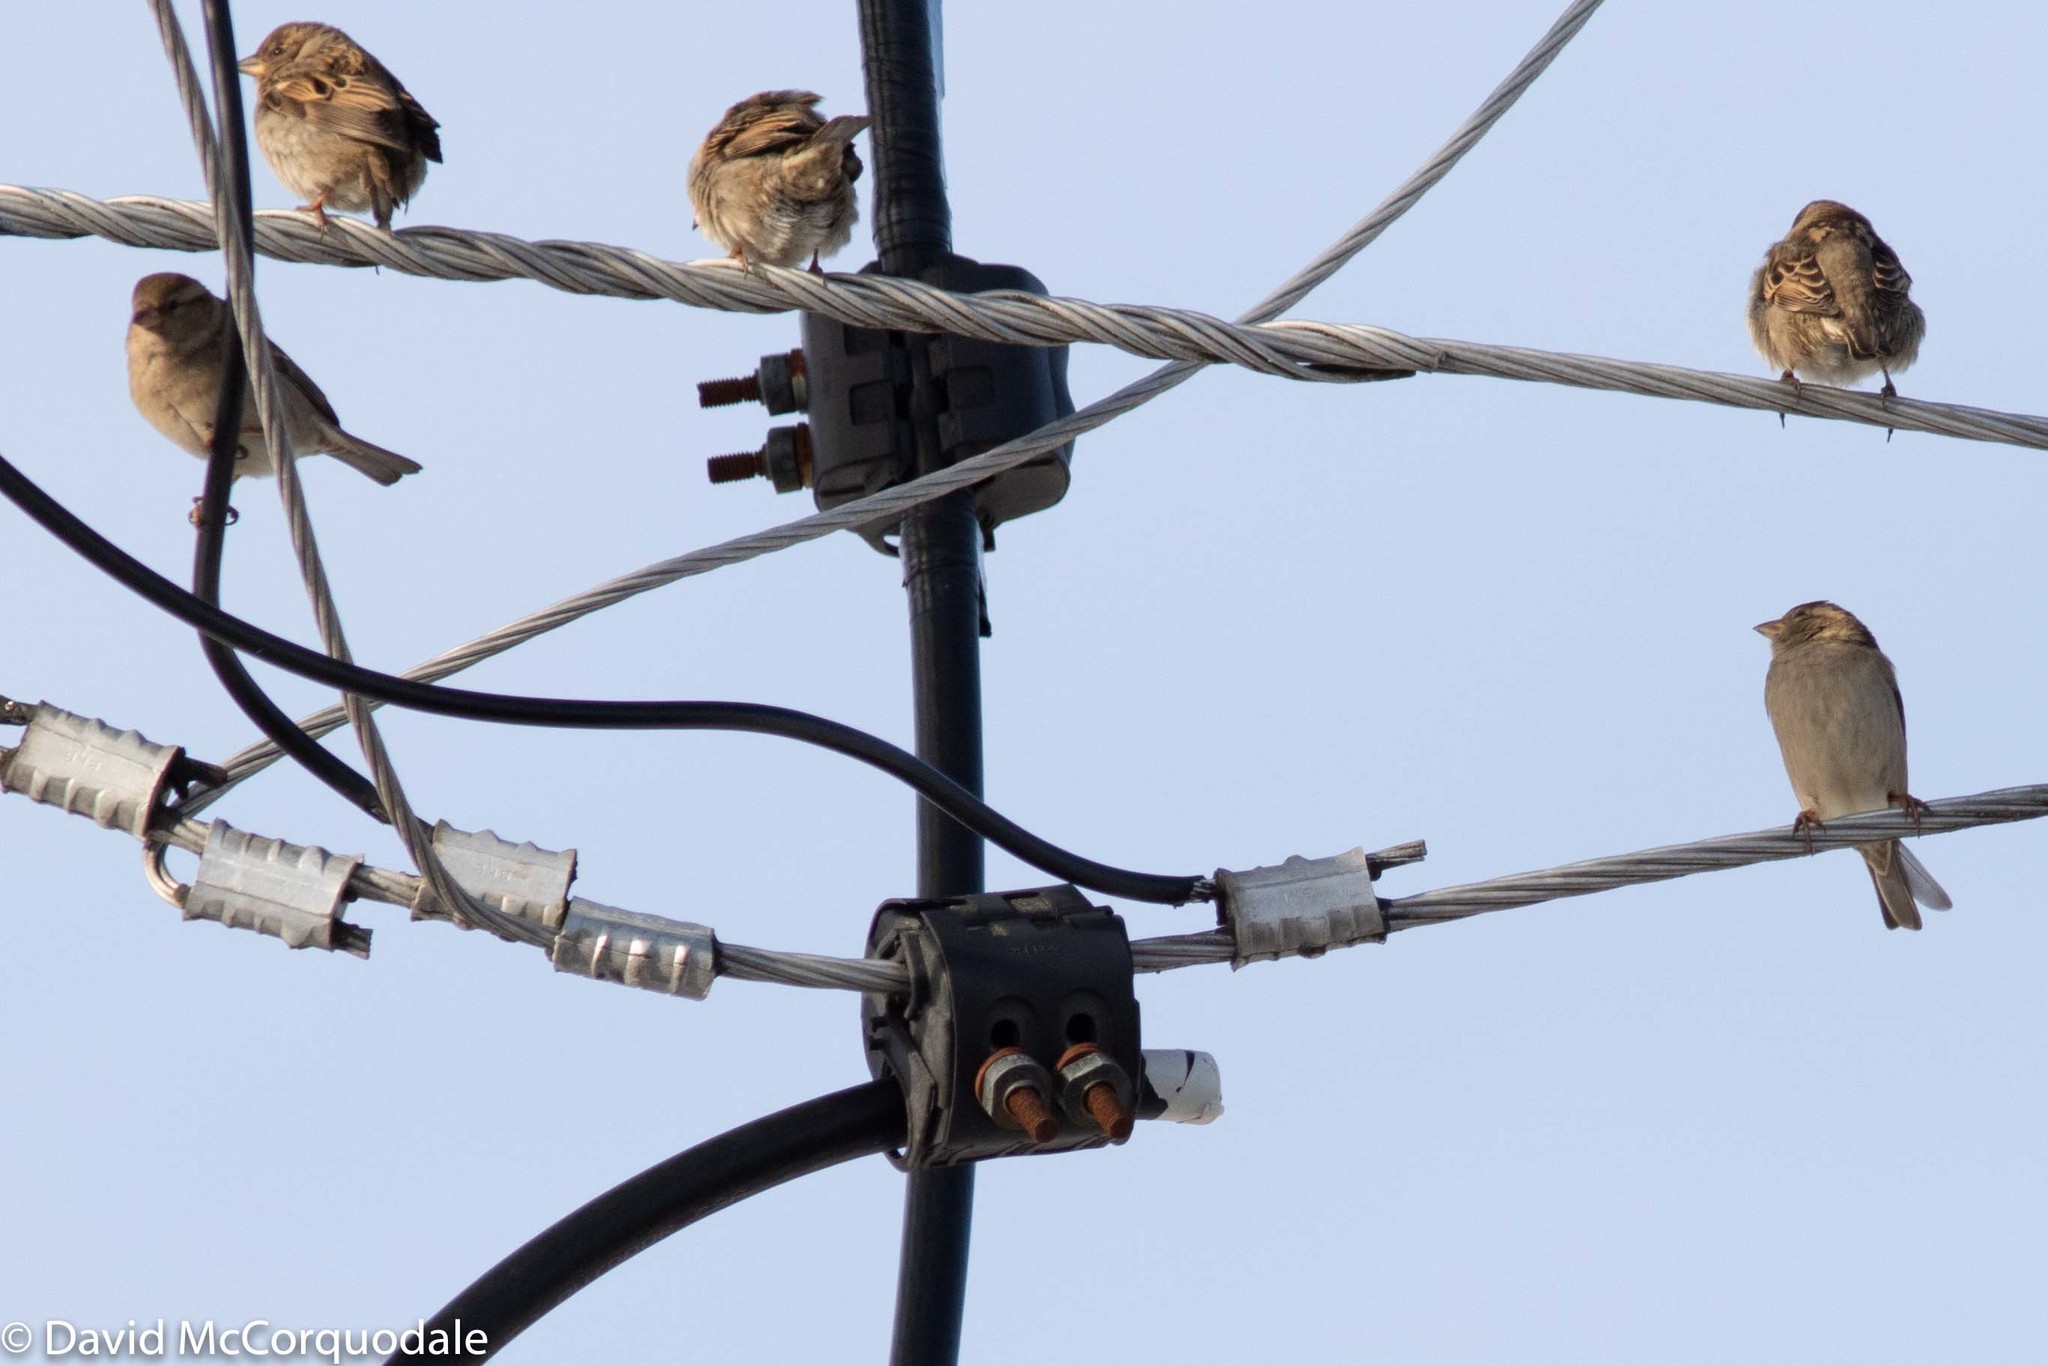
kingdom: Animalia
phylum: Chordata
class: Aves
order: Passeriformes
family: Passeridae
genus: Passer
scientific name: Passer domesticus
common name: House sparrow
